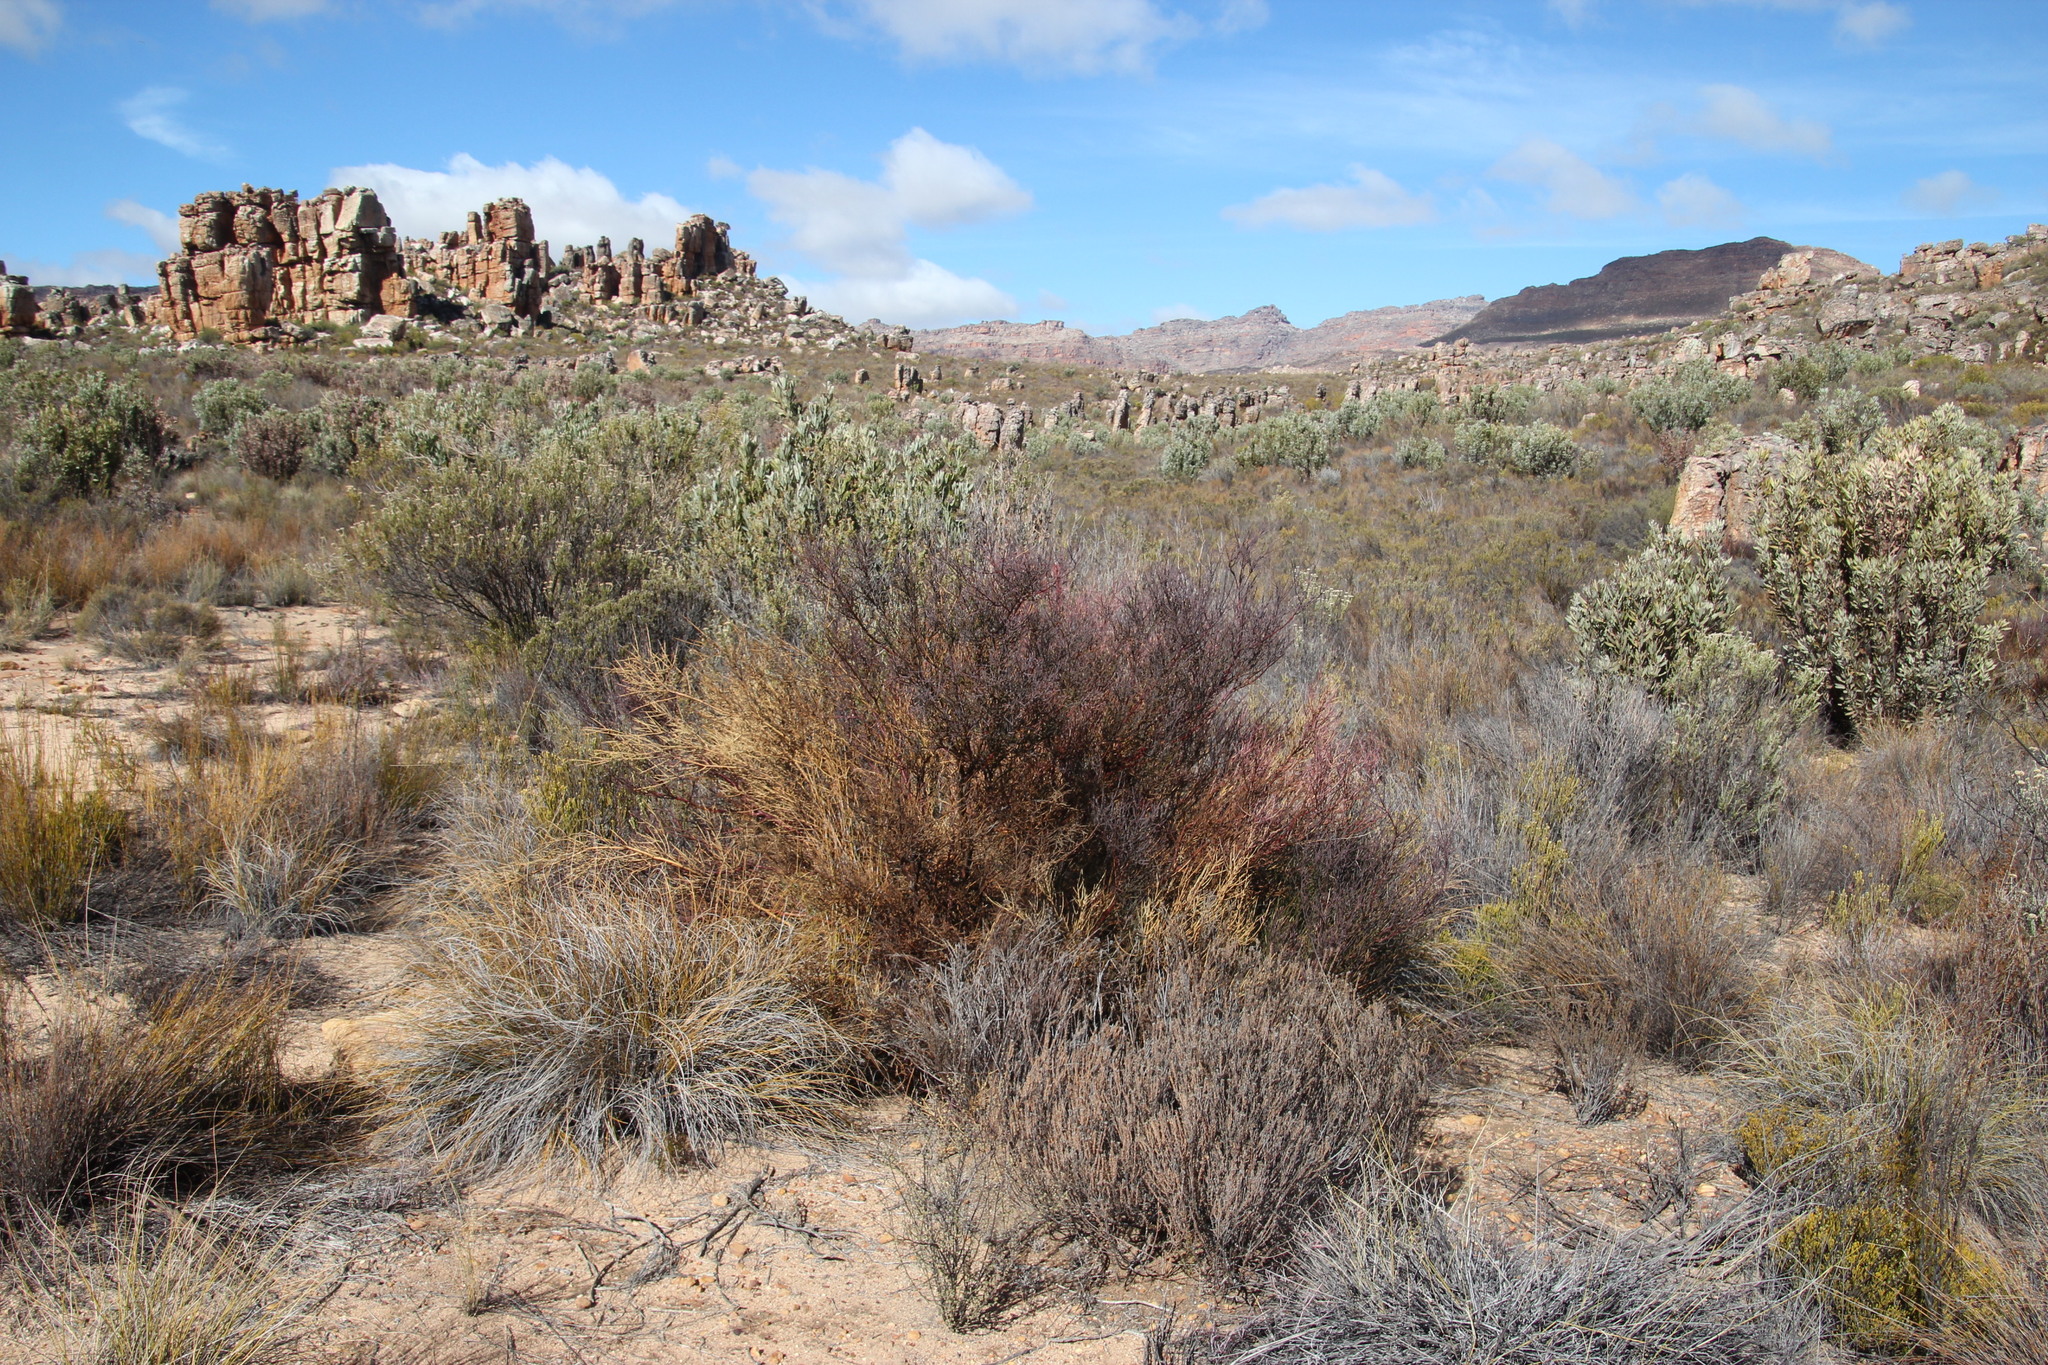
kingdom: Plantae
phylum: Tracheophyta
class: Magnoliopsida
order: Fabales
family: Polygalaceae
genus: Muraltia
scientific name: Muraltia spinosa
